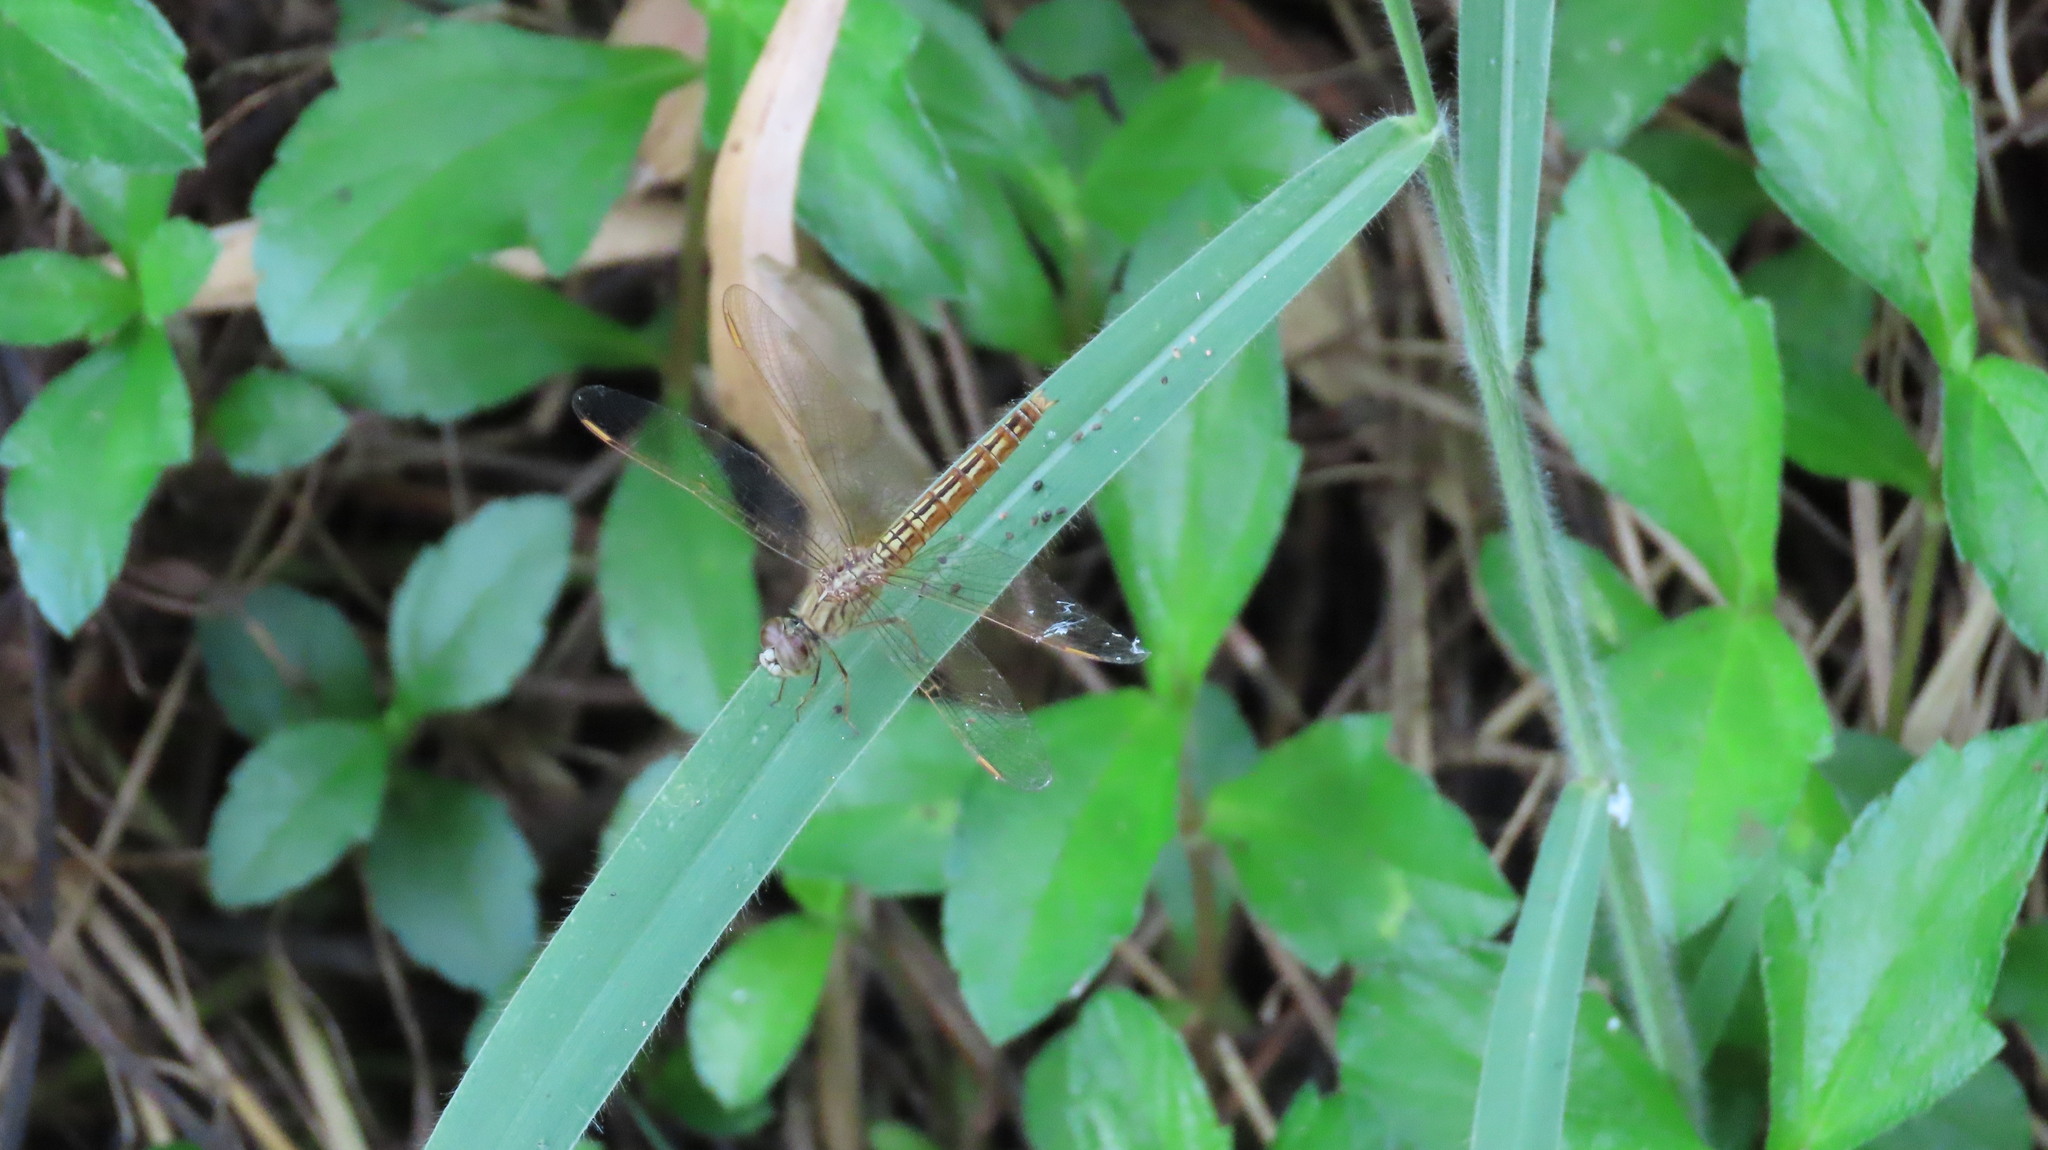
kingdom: Animalia
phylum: Arthropoda
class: Insecta
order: Odonata
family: Libellulidae
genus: Brachythemis
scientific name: Brachythemis contaminata
